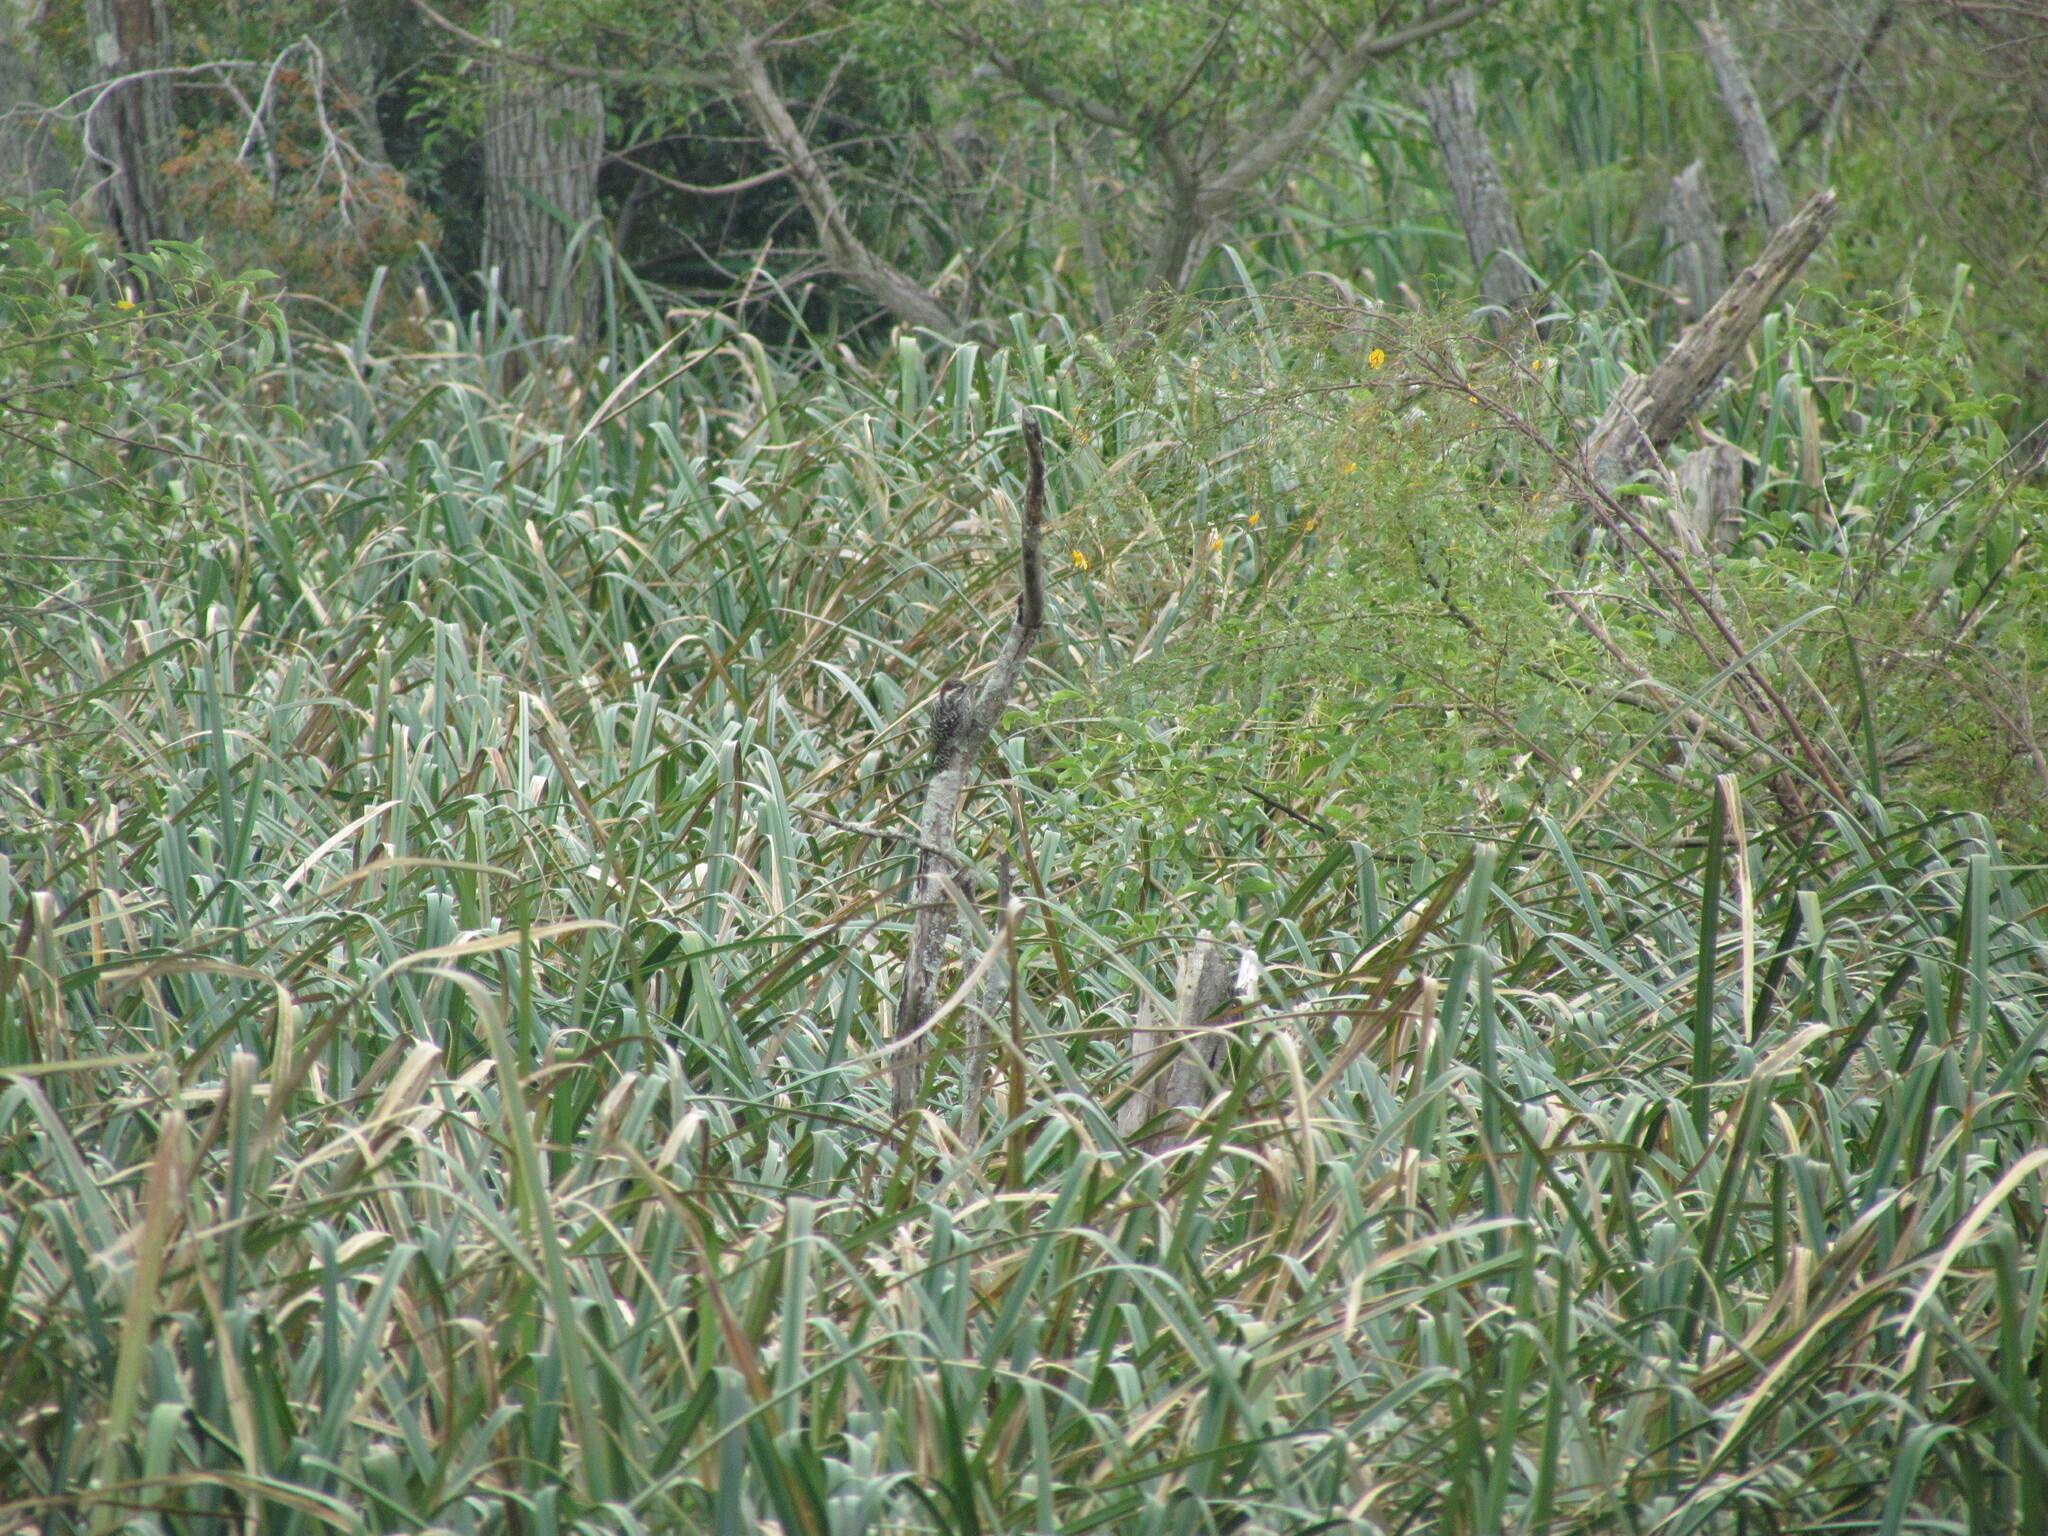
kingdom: Animalia
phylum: Chordata
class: Aves
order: Piciformes
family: Picidae
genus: Veniliornis
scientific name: Veniliornis mixtus
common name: Checkered woodpecker
